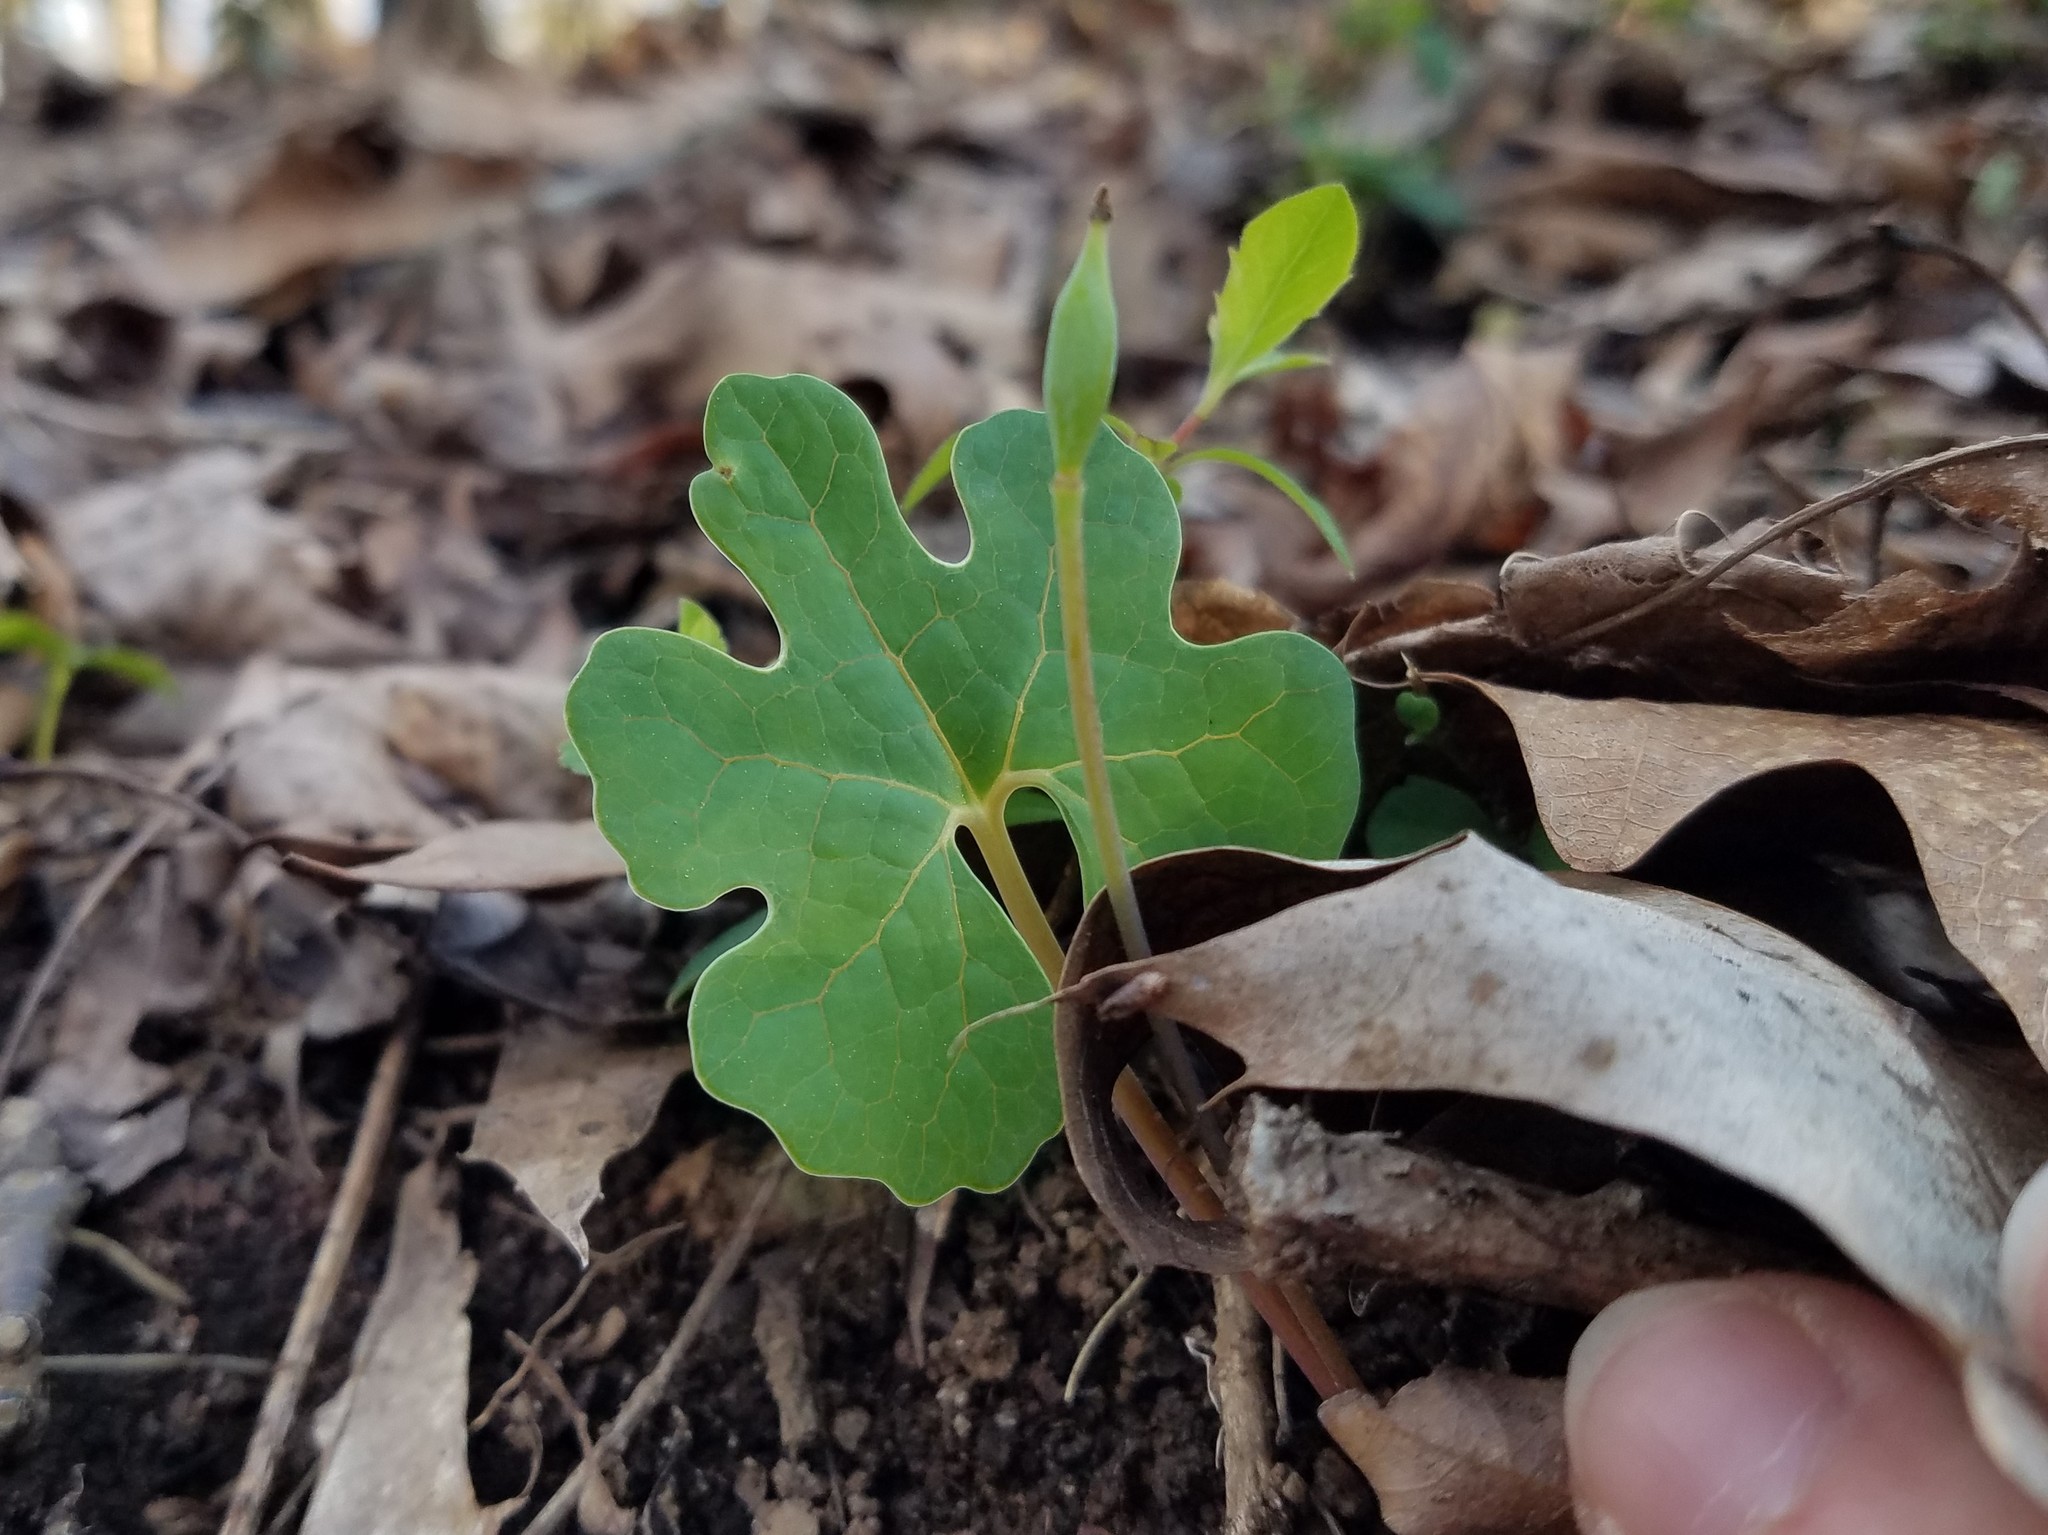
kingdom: Plantae
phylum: Tracheophyta
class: Magnoliopsida
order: Ranunculales
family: Papaveraceae
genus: Sanguinaria
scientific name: Sanguinaria canadensis
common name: Bloodroot
